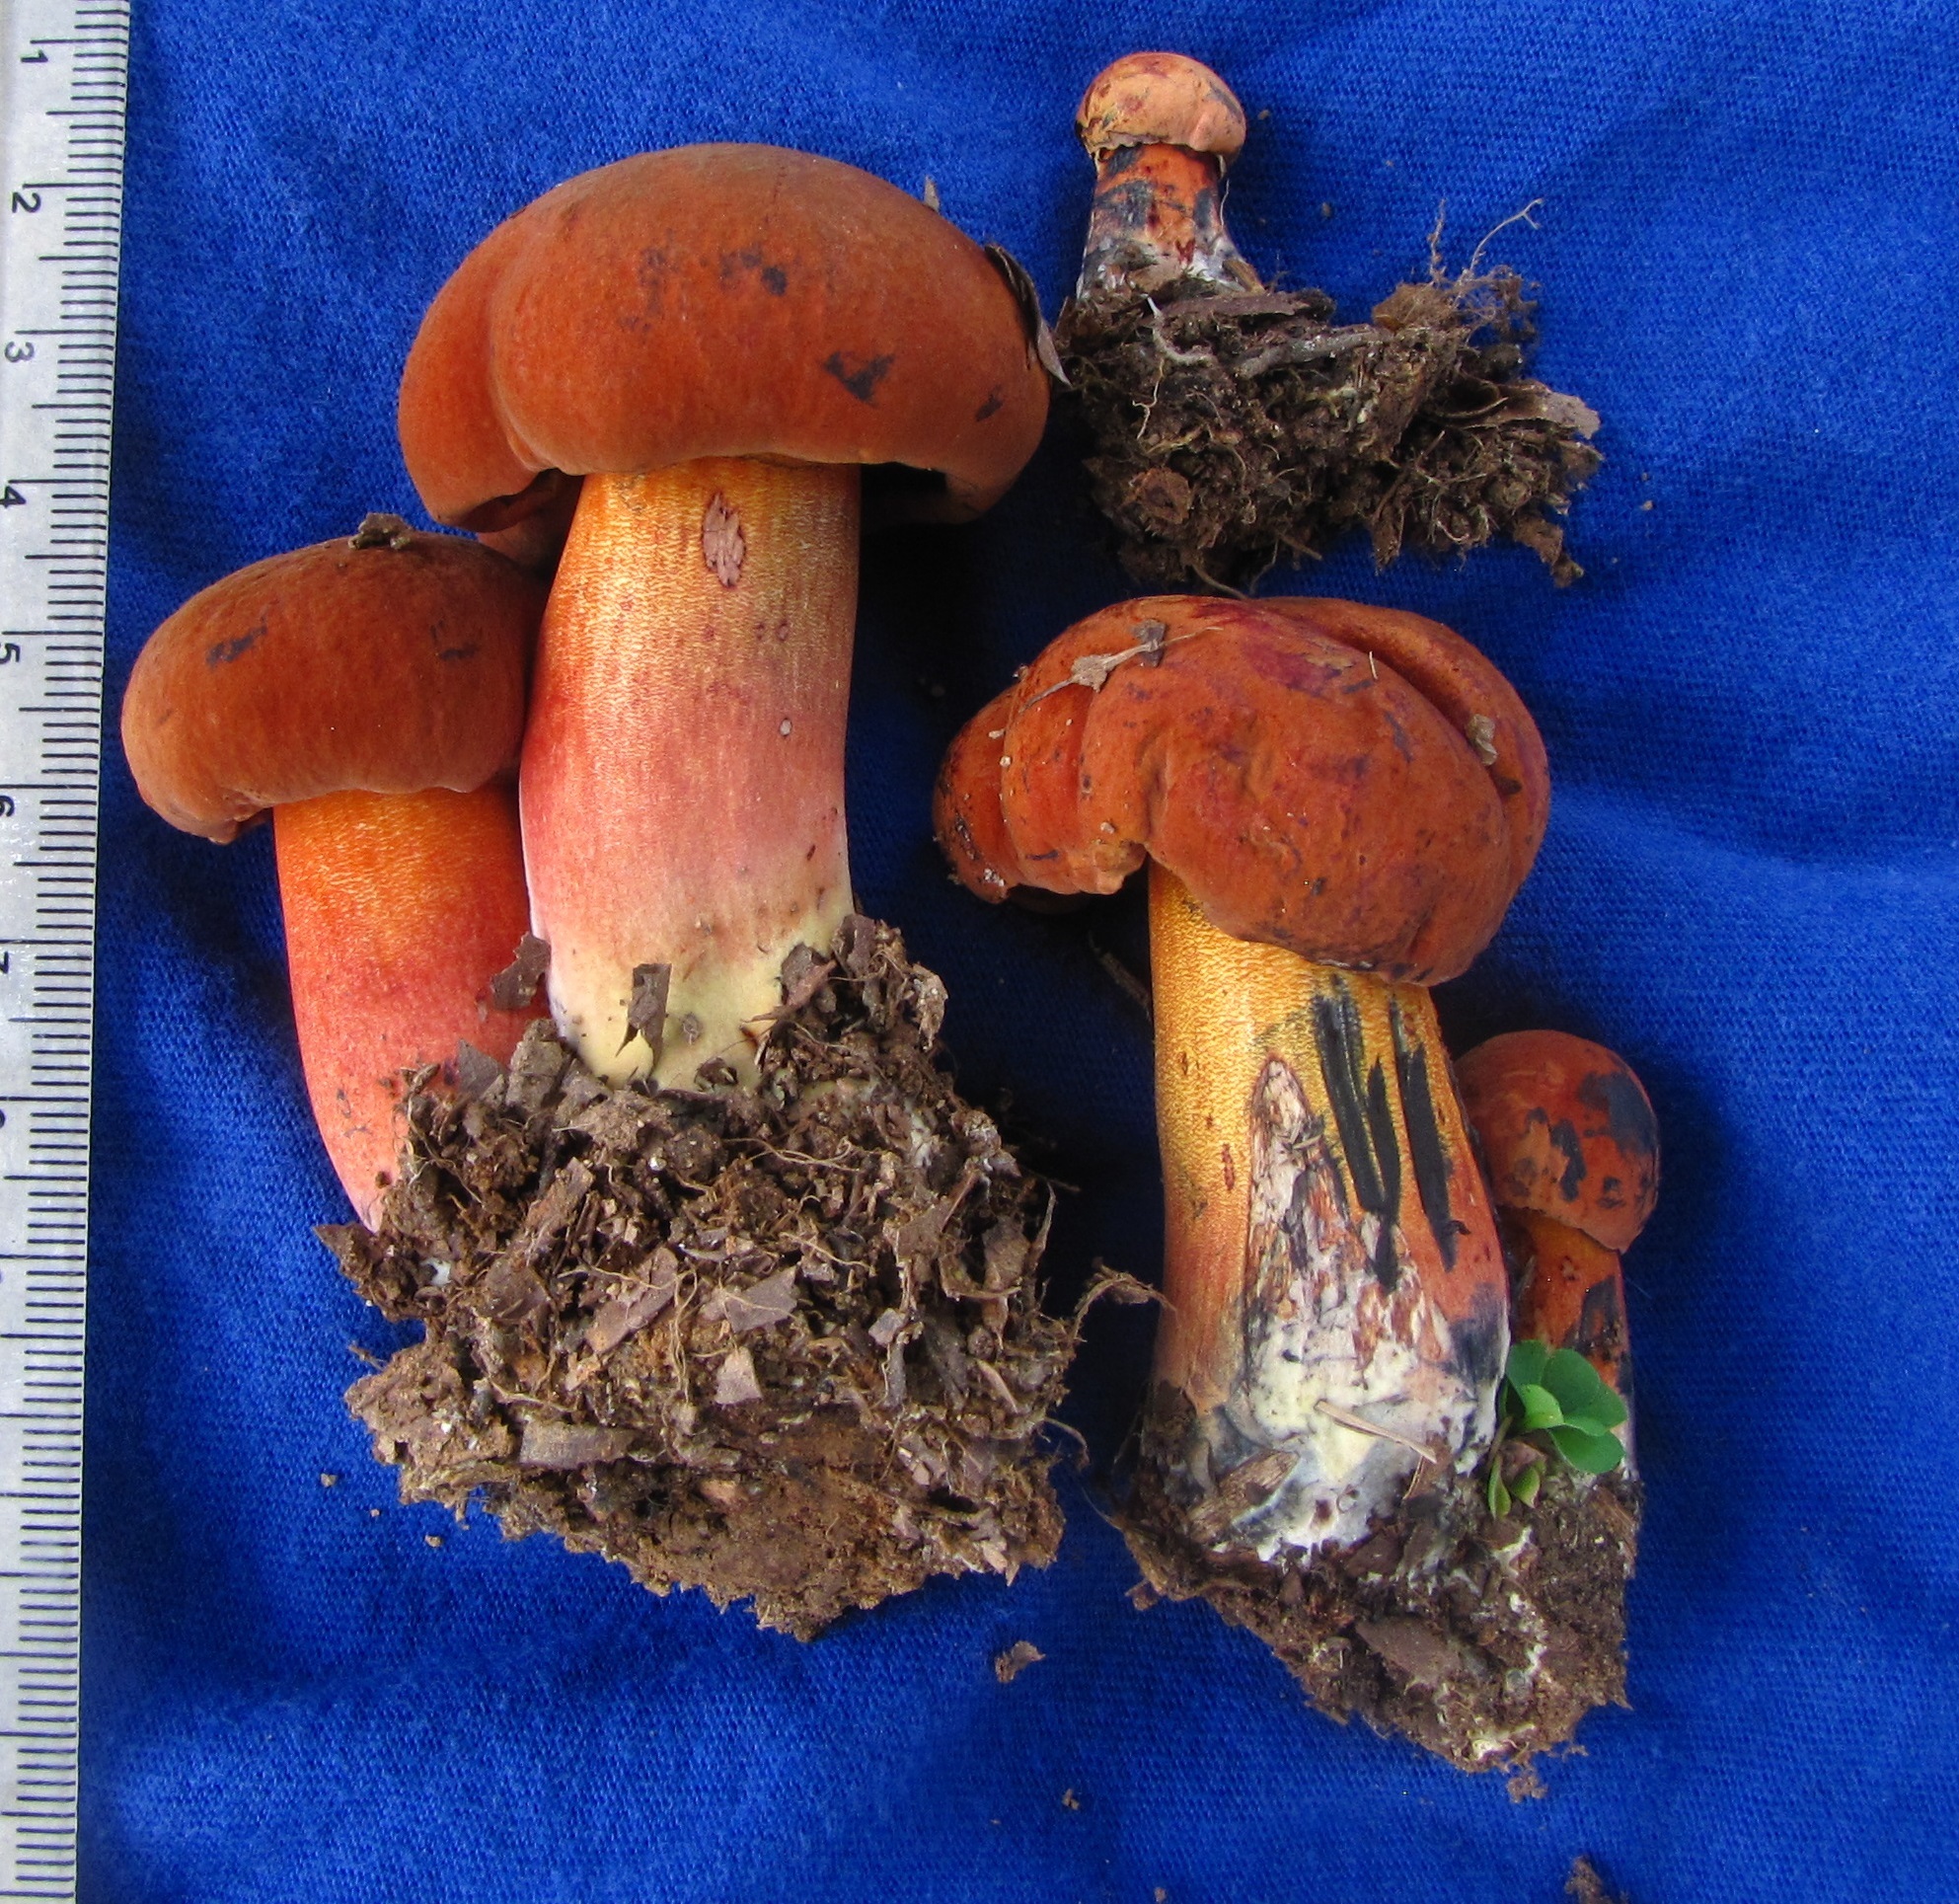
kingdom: Fungi
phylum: Basidiomycota
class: Agaricomycetes
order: Boletales
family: Boletaceae
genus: Boletus
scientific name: Boletus subvelutipes
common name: Red-mouth bolete
